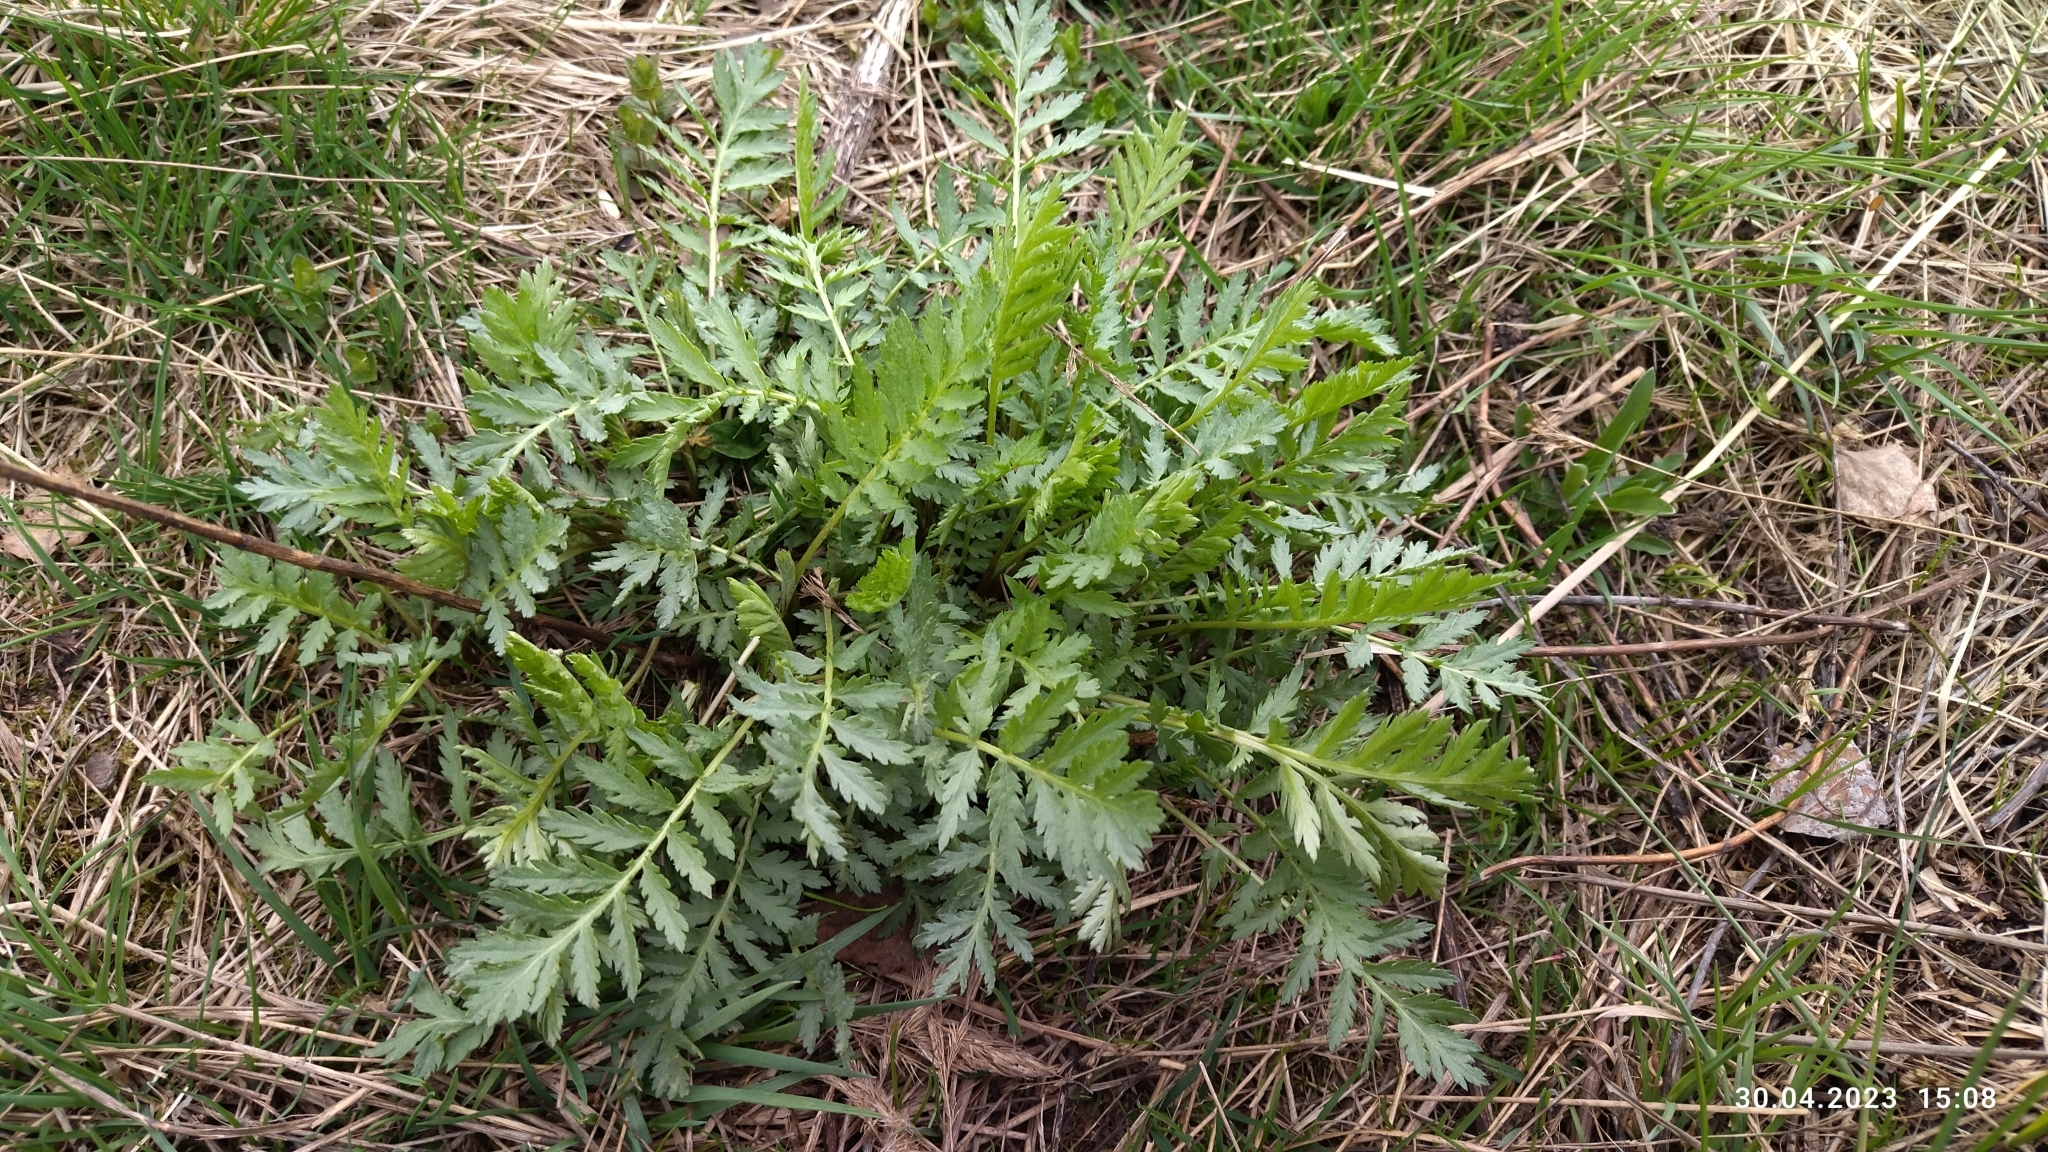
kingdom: Plantae
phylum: Tracheophyta
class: Magnoliopsida
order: Asterales
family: Asteraceae
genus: Tanacetum
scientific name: Tanacetum vulgare
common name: Common tansy
